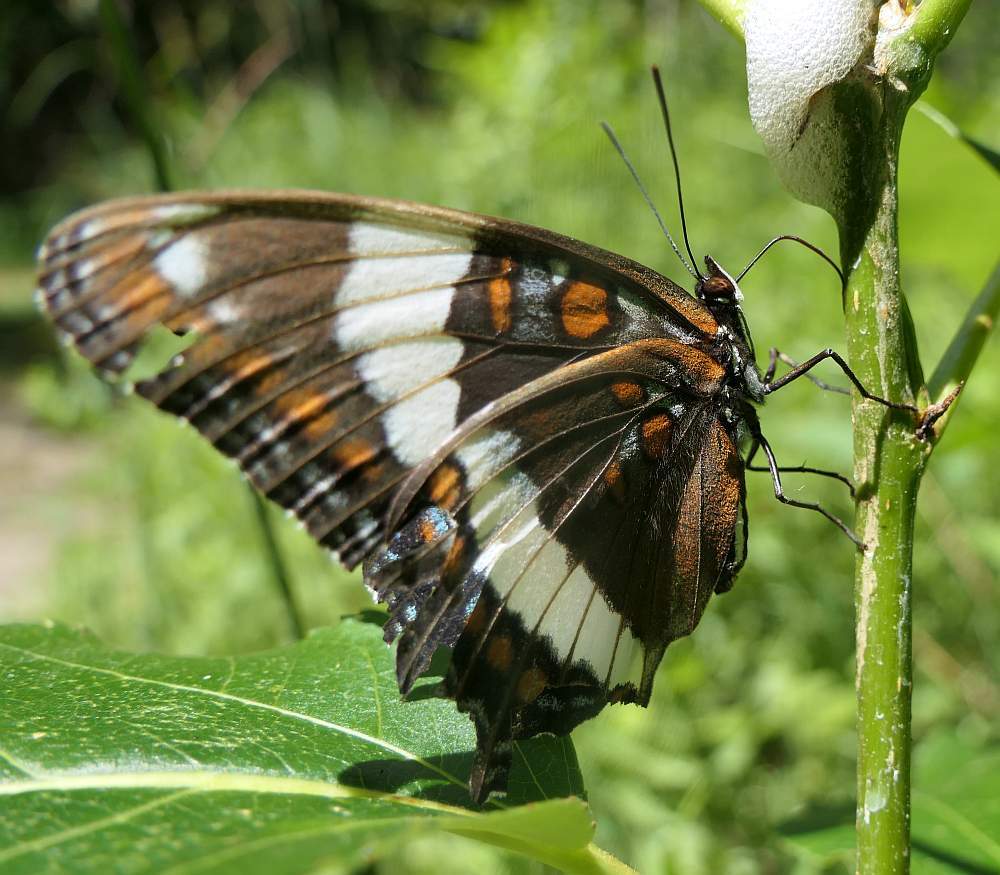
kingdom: Animalia
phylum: Arthropoda
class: Insecta
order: Lepidoptera
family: Nymphalidae
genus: Limenitis
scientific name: Limenitis arthemis
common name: Red-spotted admiral
